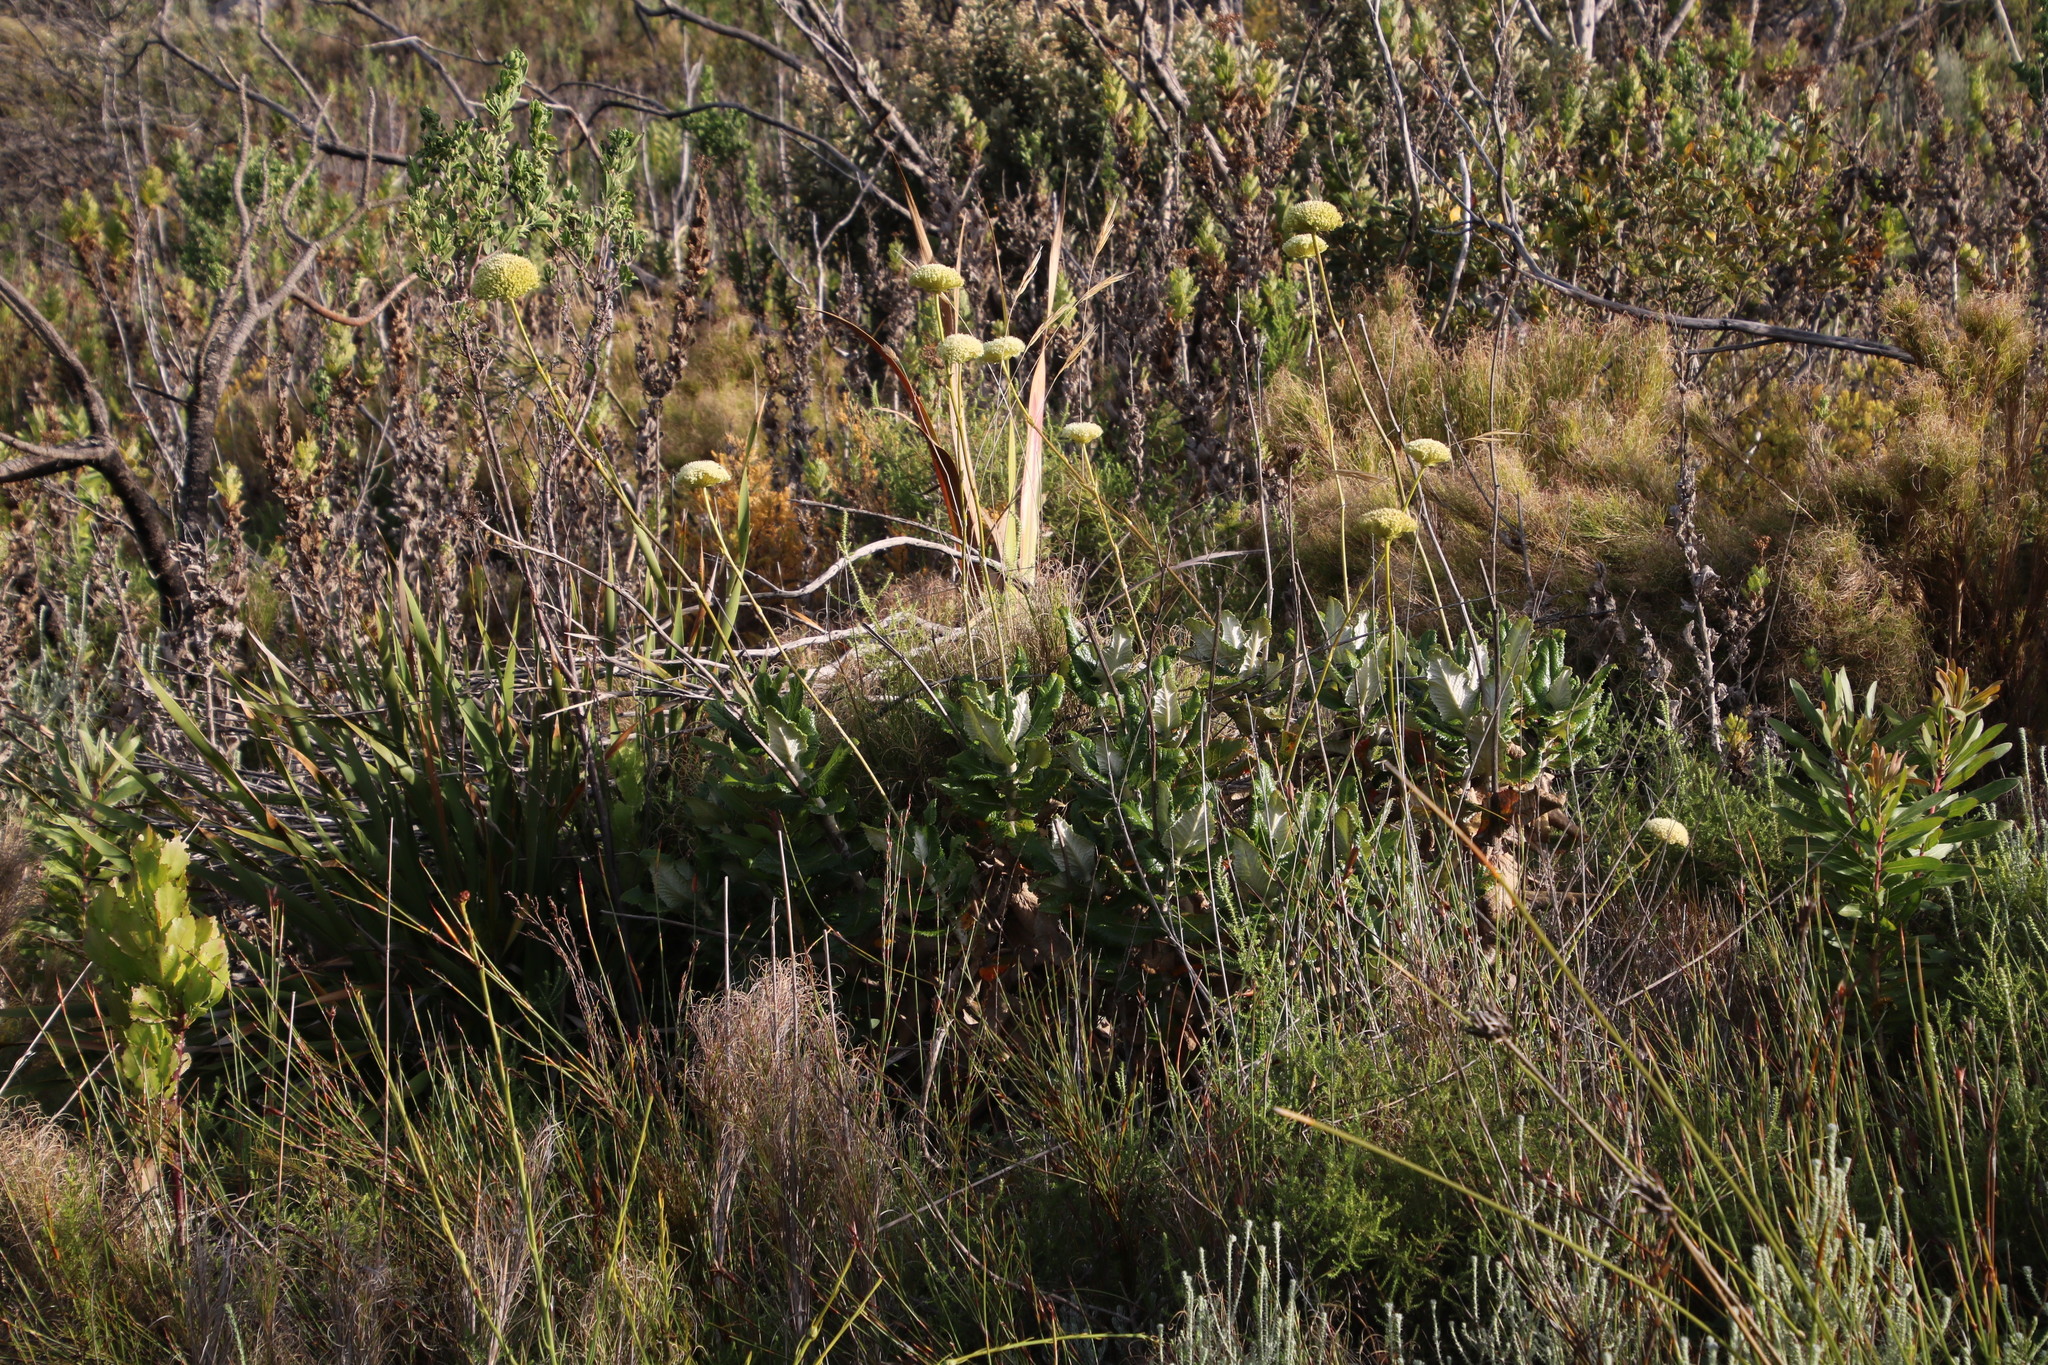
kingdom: Plantae
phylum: Tracheophyta
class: Magnoliopsida
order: Apiales
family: Apiaceae
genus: Hermas
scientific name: Hermas villosa
